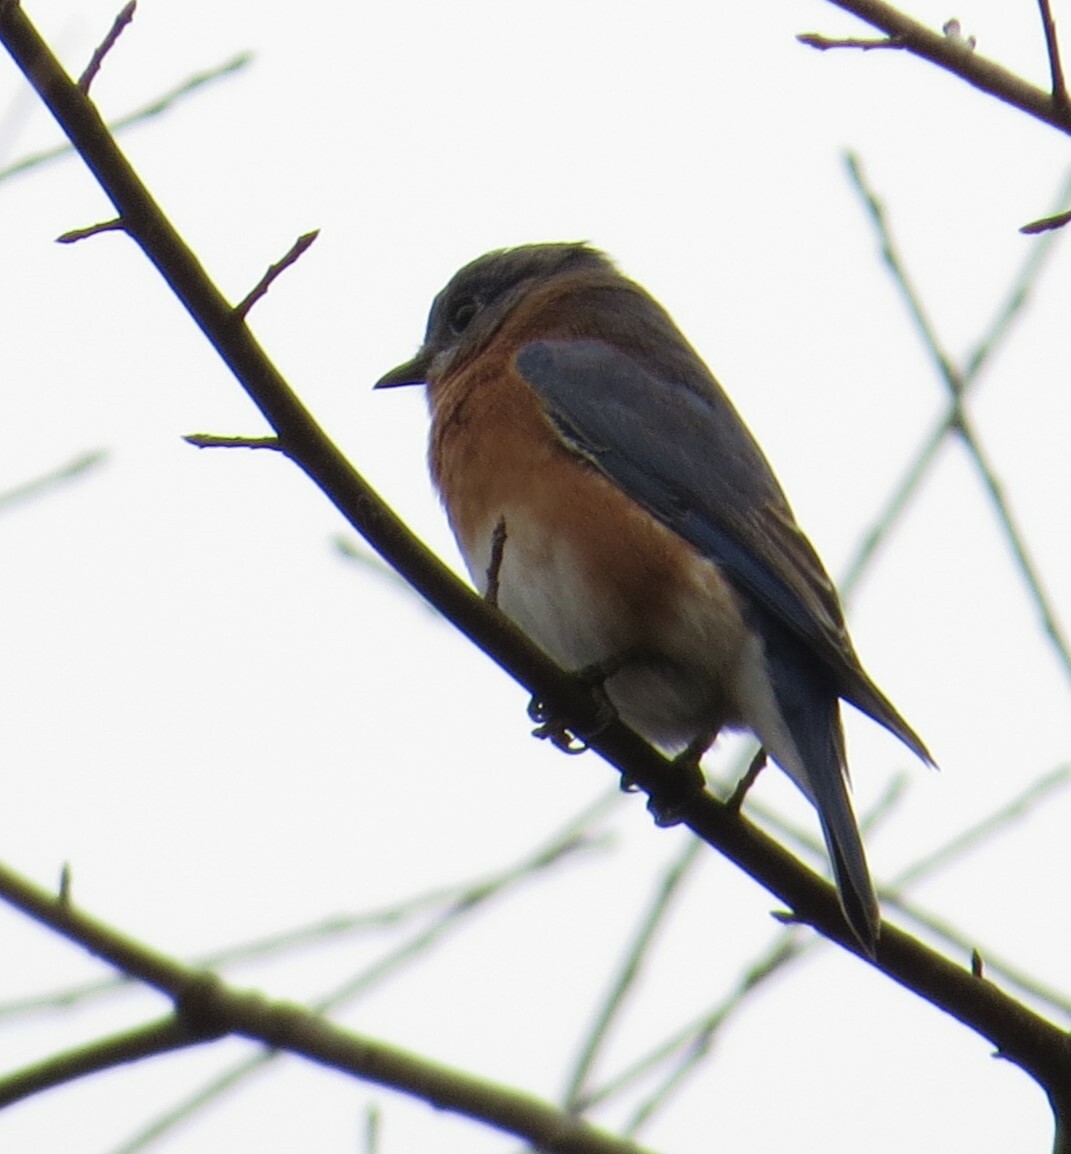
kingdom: Animalia
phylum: Chordata
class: Aves
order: Passeriformes
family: Turdidae
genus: Sialia
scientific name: Sialia sialis
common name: Eastern bluebird
